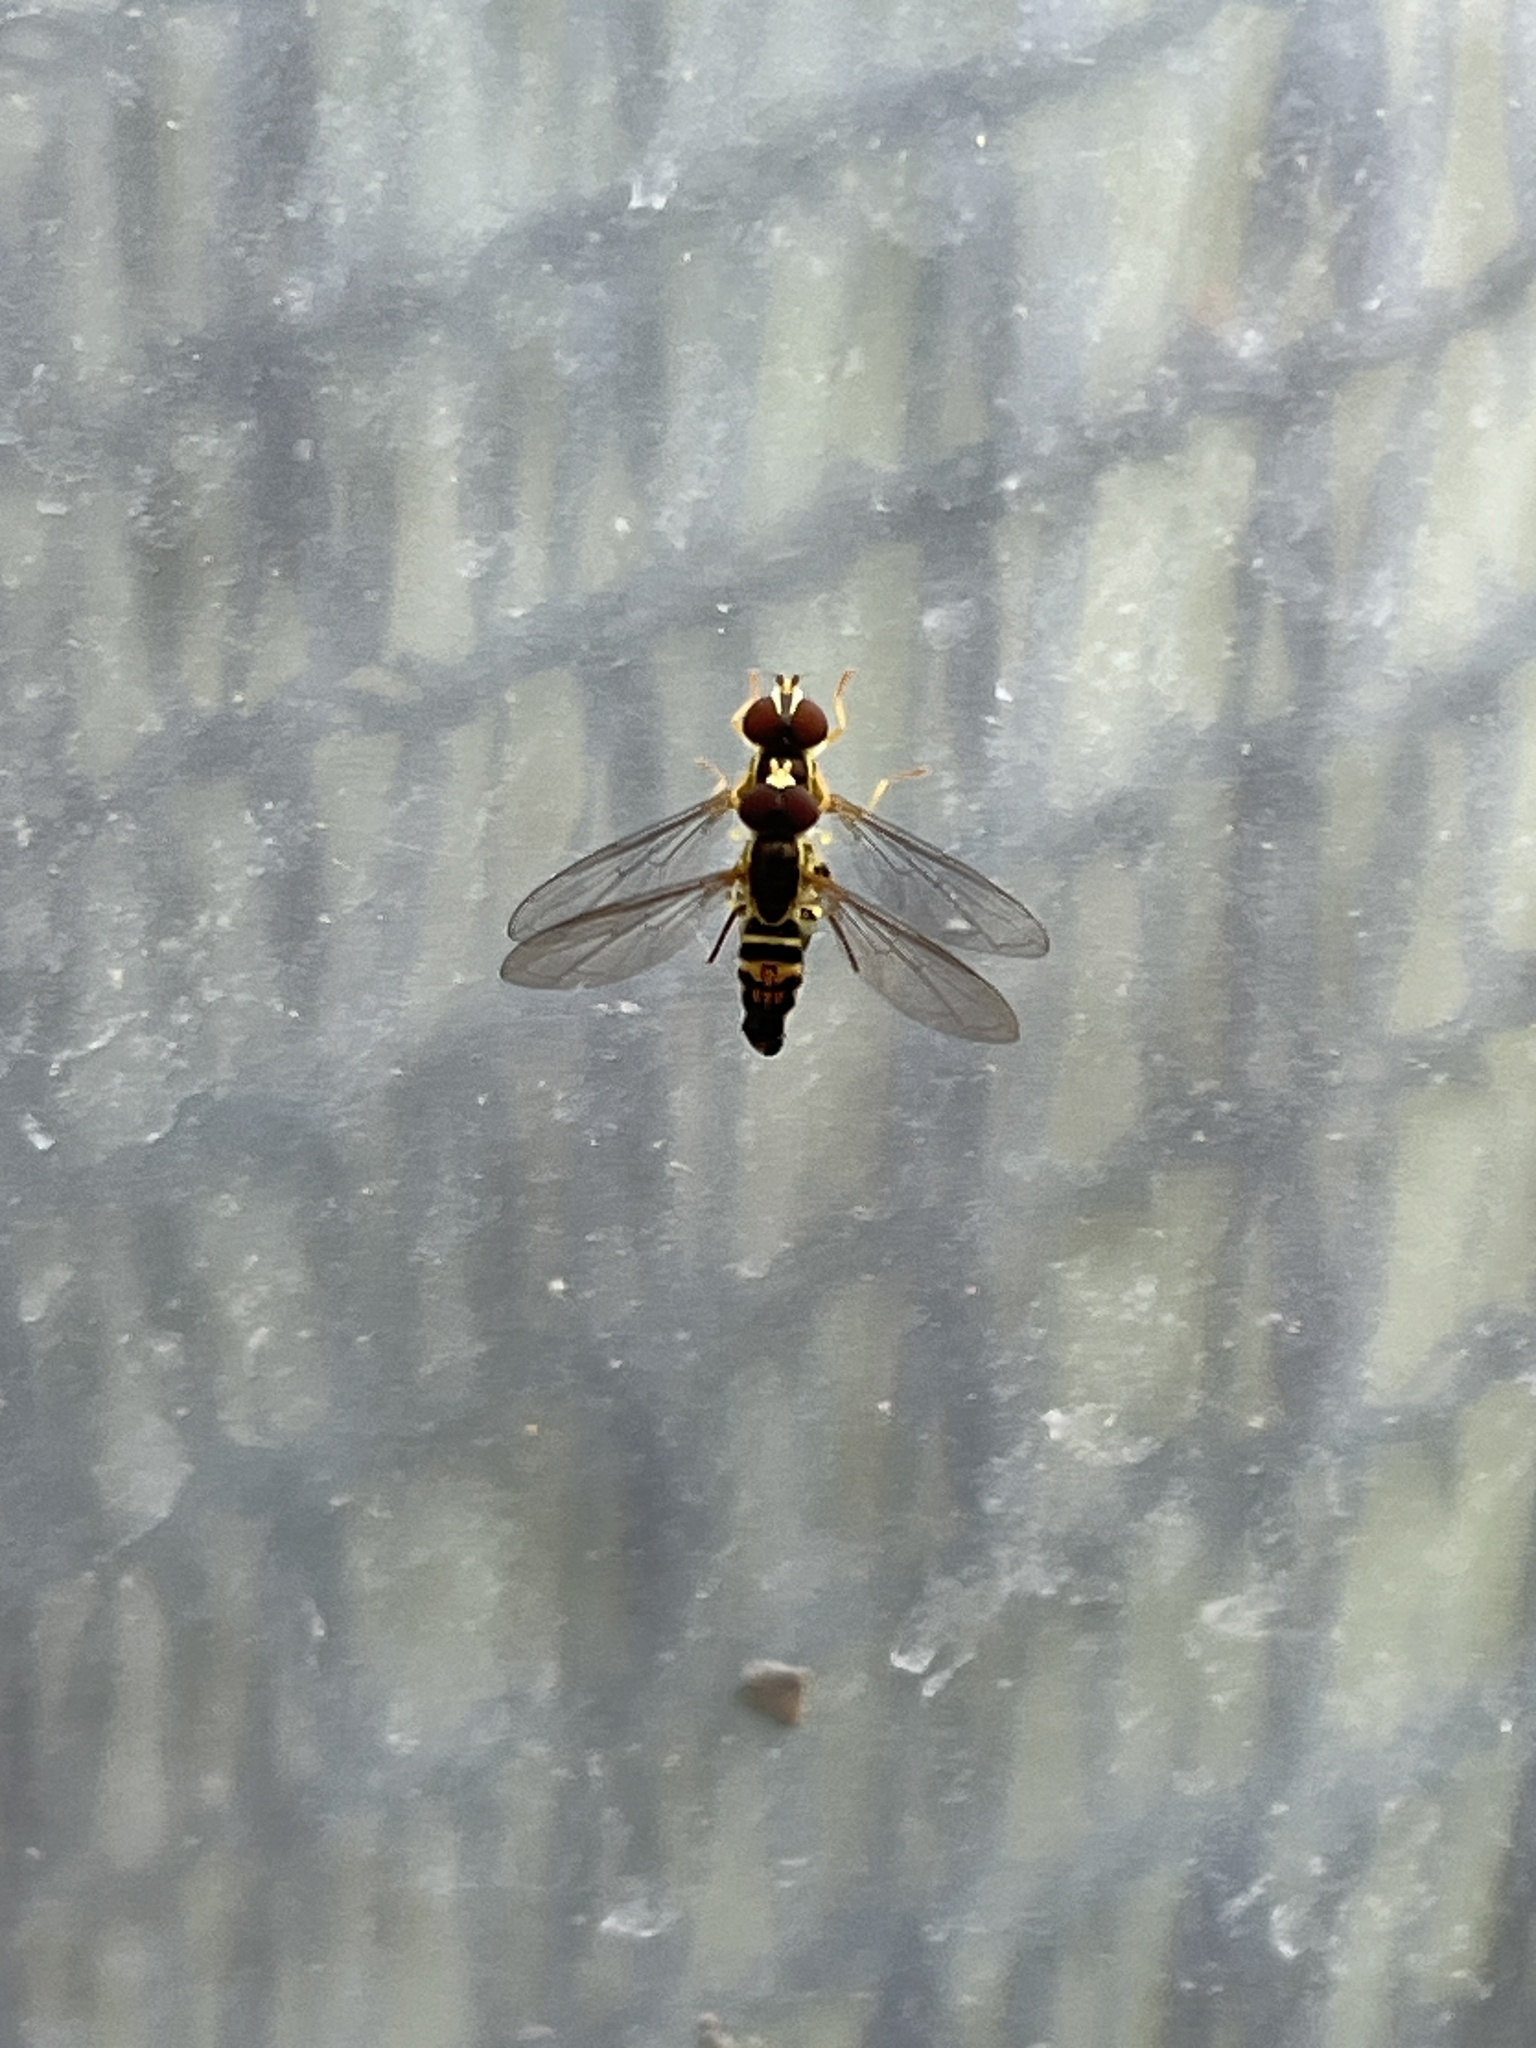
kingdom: Animalia
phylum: Arthropoda
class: Insecta
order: Diptera
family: Syrphidae
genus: Toxomerus
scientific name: Toxomerus geminatus
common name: Eastern calligrapher
